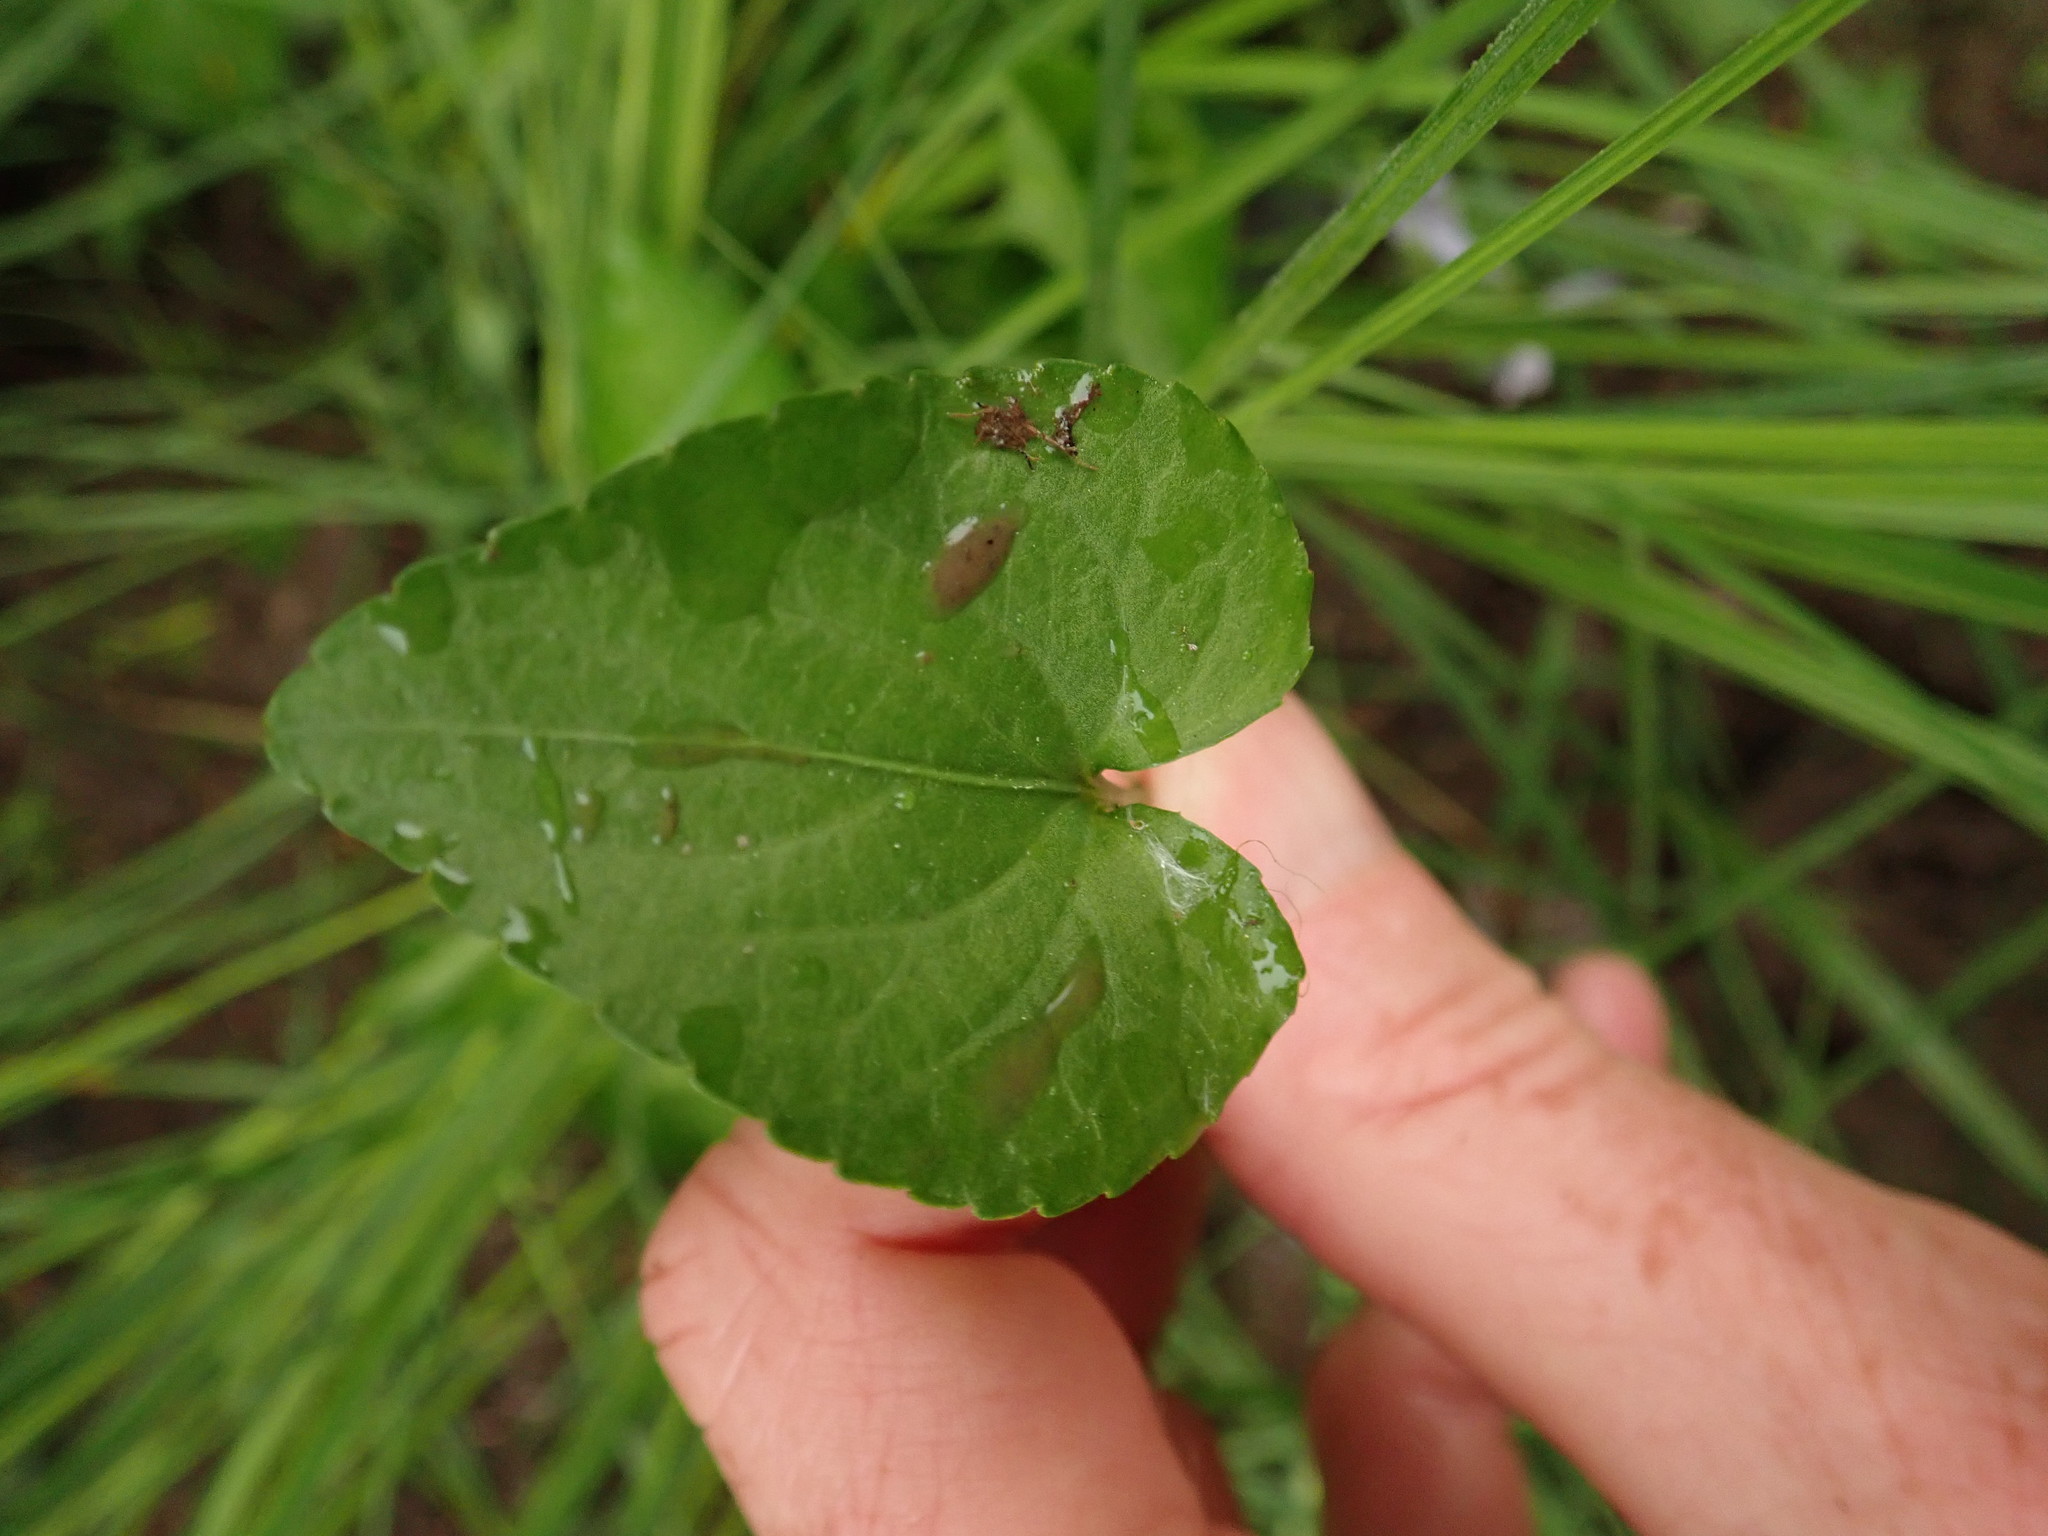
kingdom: Plantae
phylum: Tracheophyta
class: Magnoliopsida
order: Malpighiales
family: Violaceae
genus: Viola
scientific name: Viola labradorica
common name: Labrador violet
